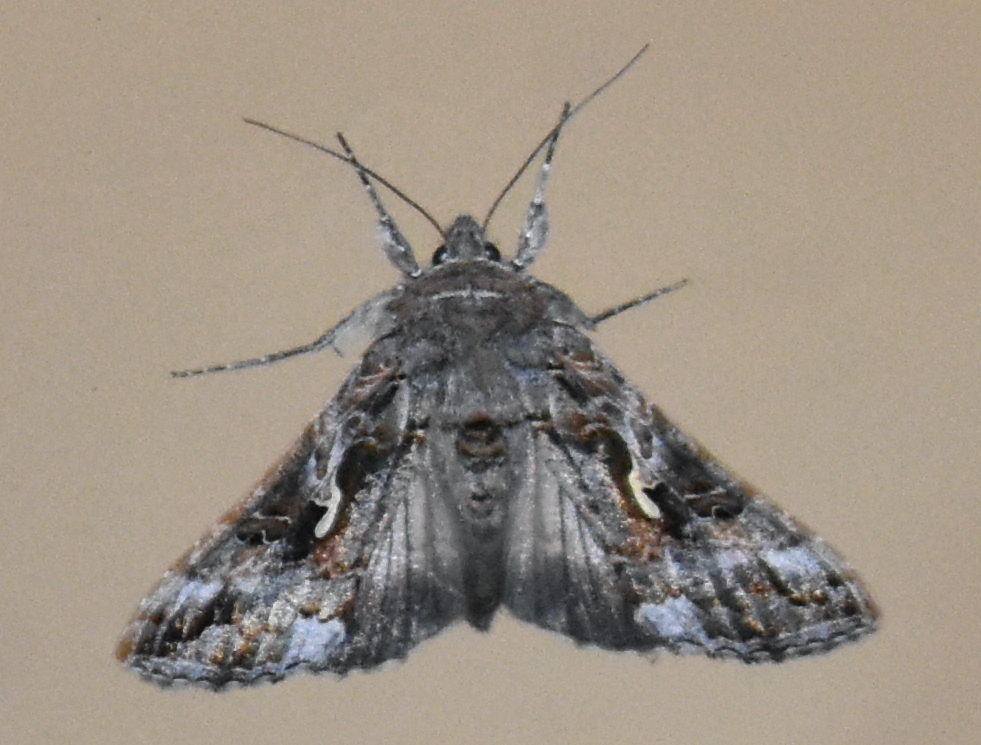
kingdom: Animalia
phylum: Arthropoda
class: Insecta
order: Lepidoptera
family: Noctuidae
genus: Autographa
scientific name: Autographa californica
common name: Alfalfa looper
